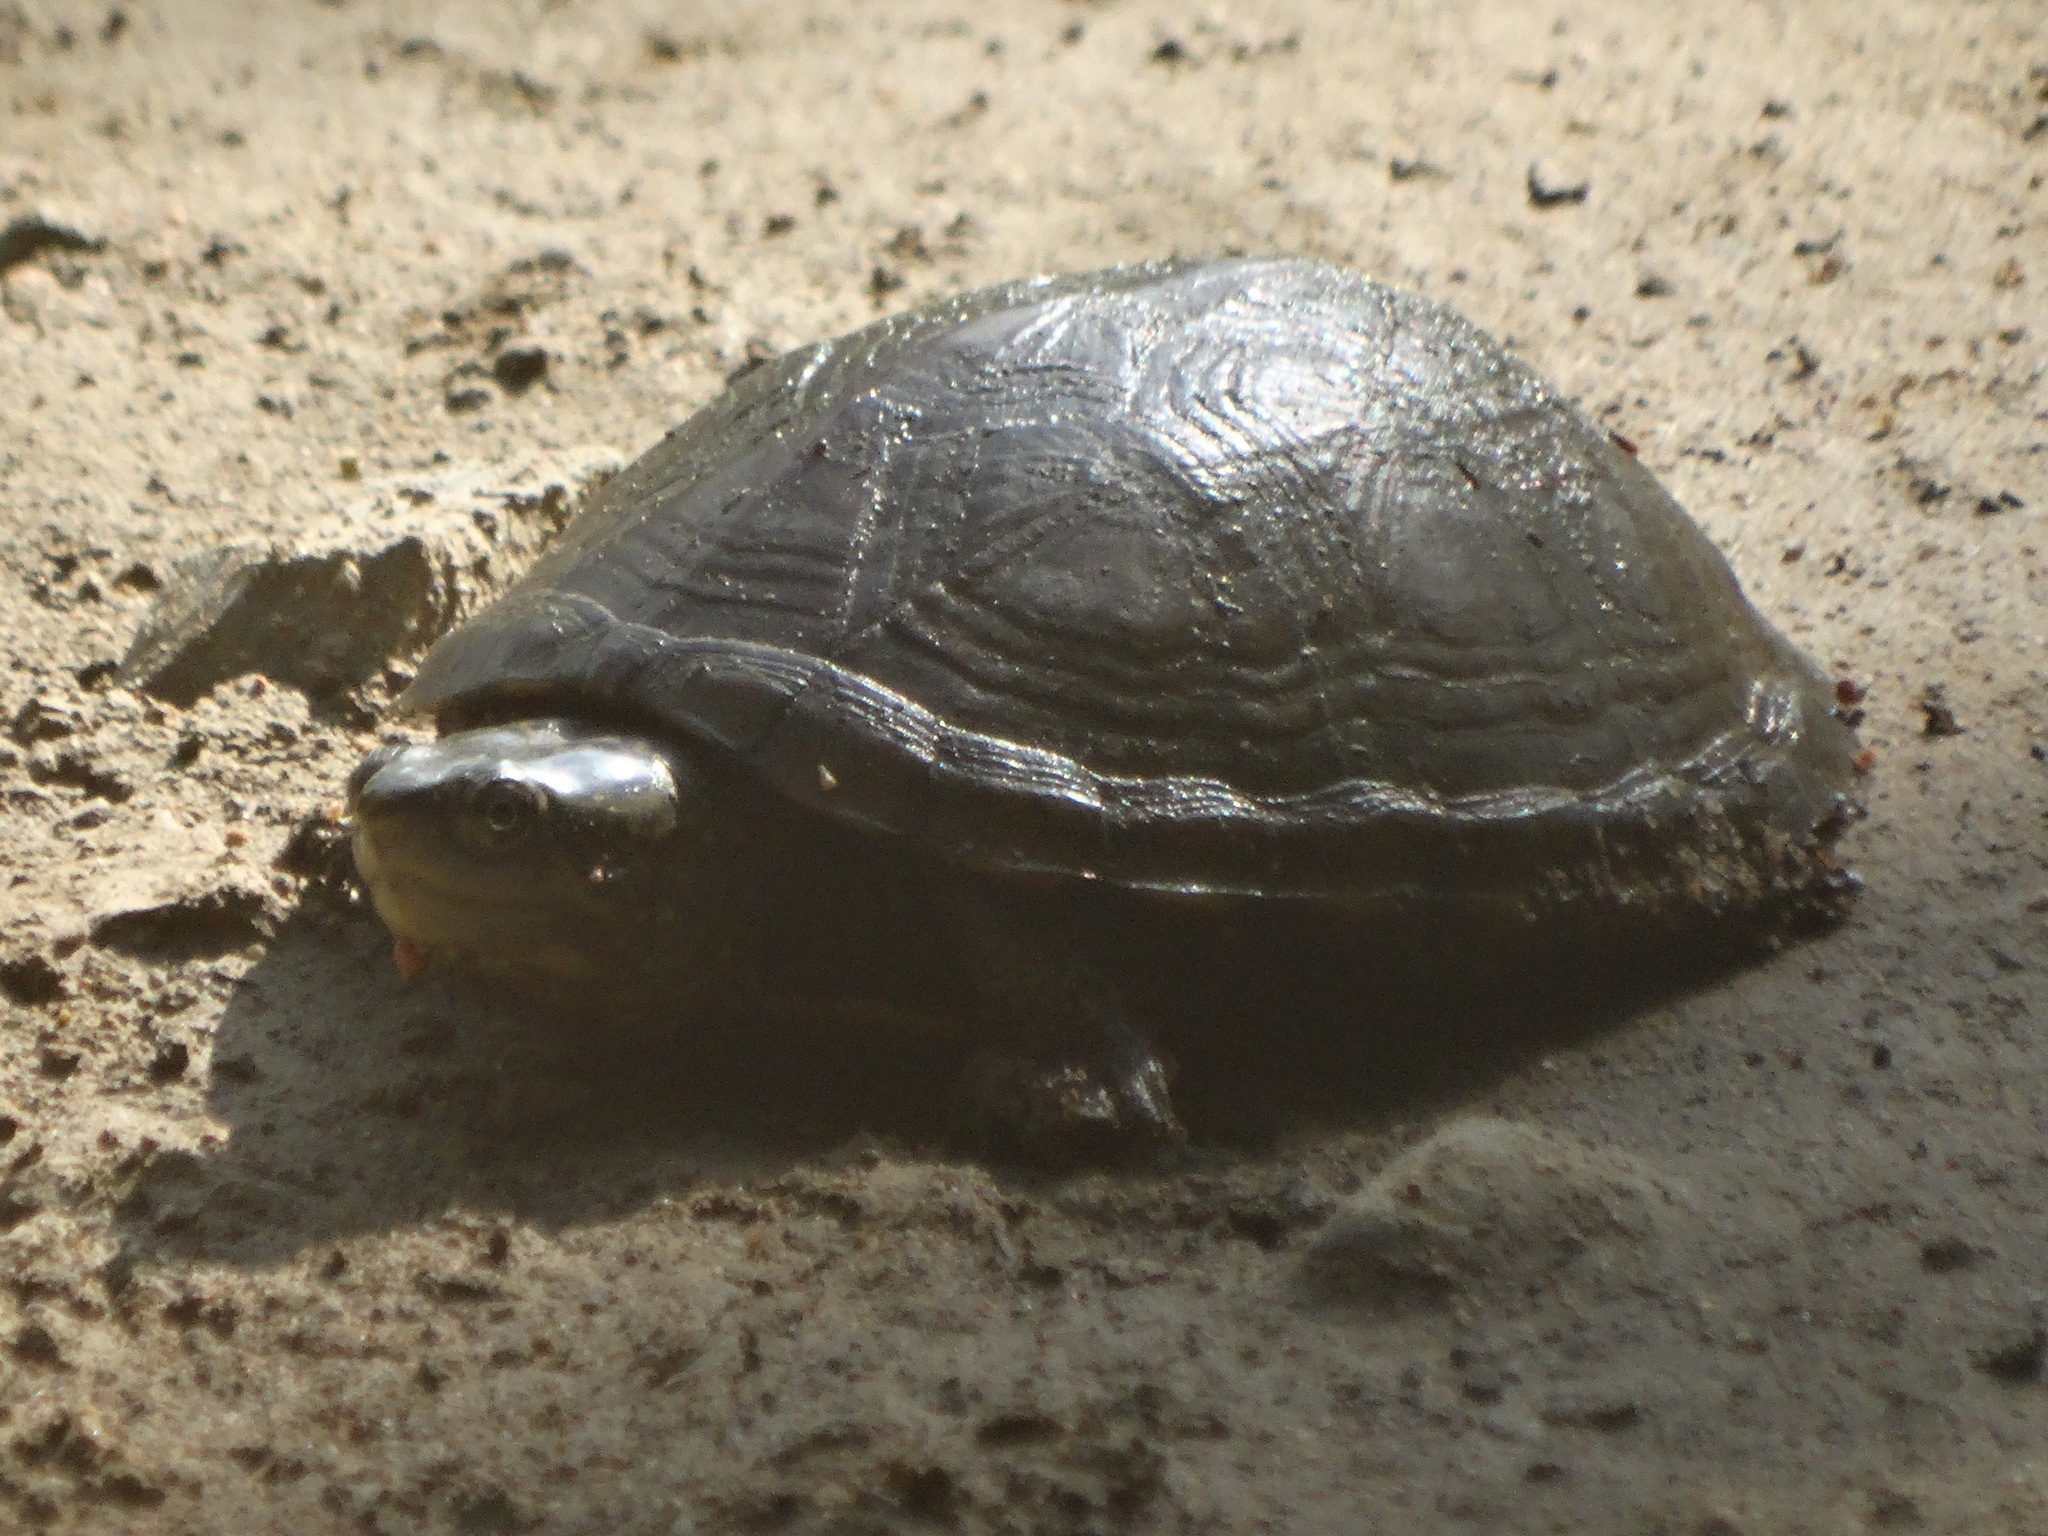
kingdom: Animalia
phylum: Chordata
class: Testudines
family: Kinosternidae
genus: Kinosternon
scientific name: Kinosternon integrum
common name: Mexican mud turtle
